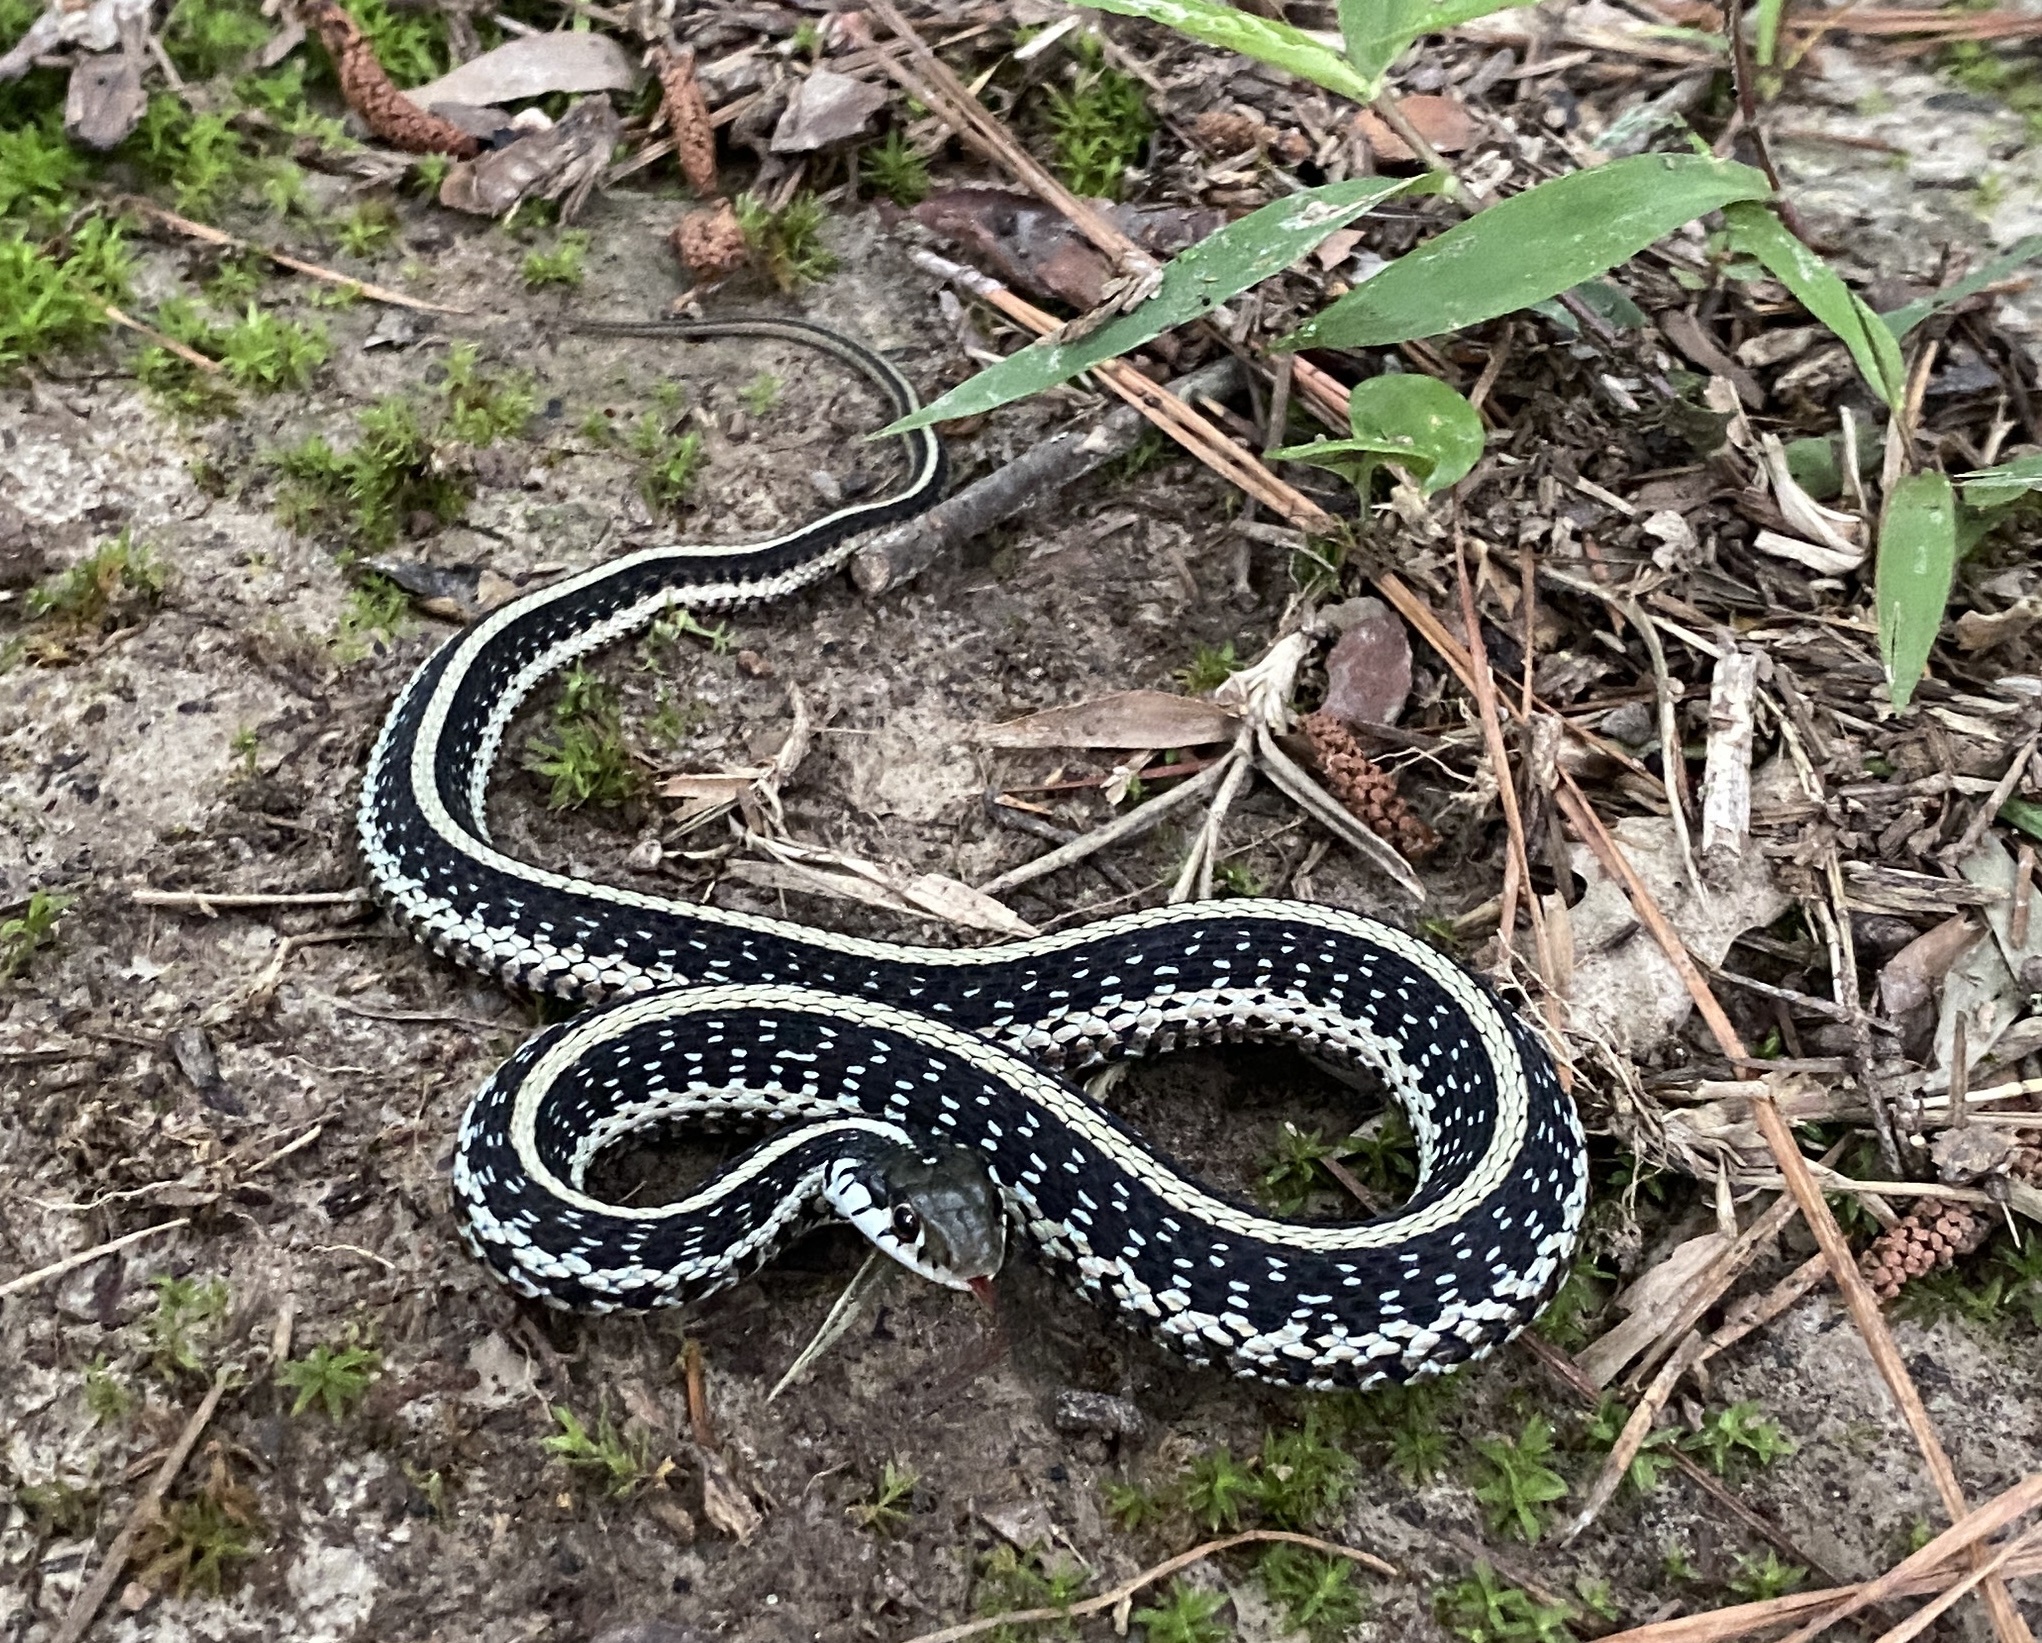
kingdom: Animalia
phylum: Chordata
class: Squamata
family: Colubridae
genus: Thamnophis
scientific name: Thamnophis sirtalis
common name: Common garter snake
